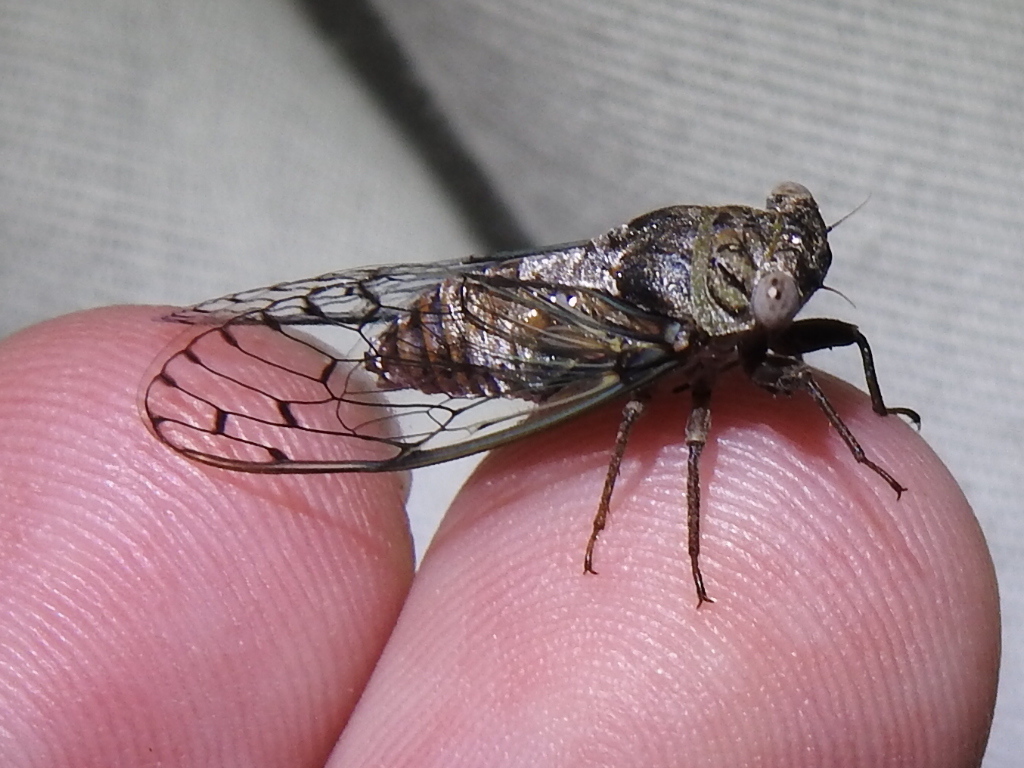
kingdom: Animalia
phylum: Arthropoda
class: Insecta
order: Hemiptera
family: Cicadidae
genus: Pacarina
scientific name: Pacarina puella
